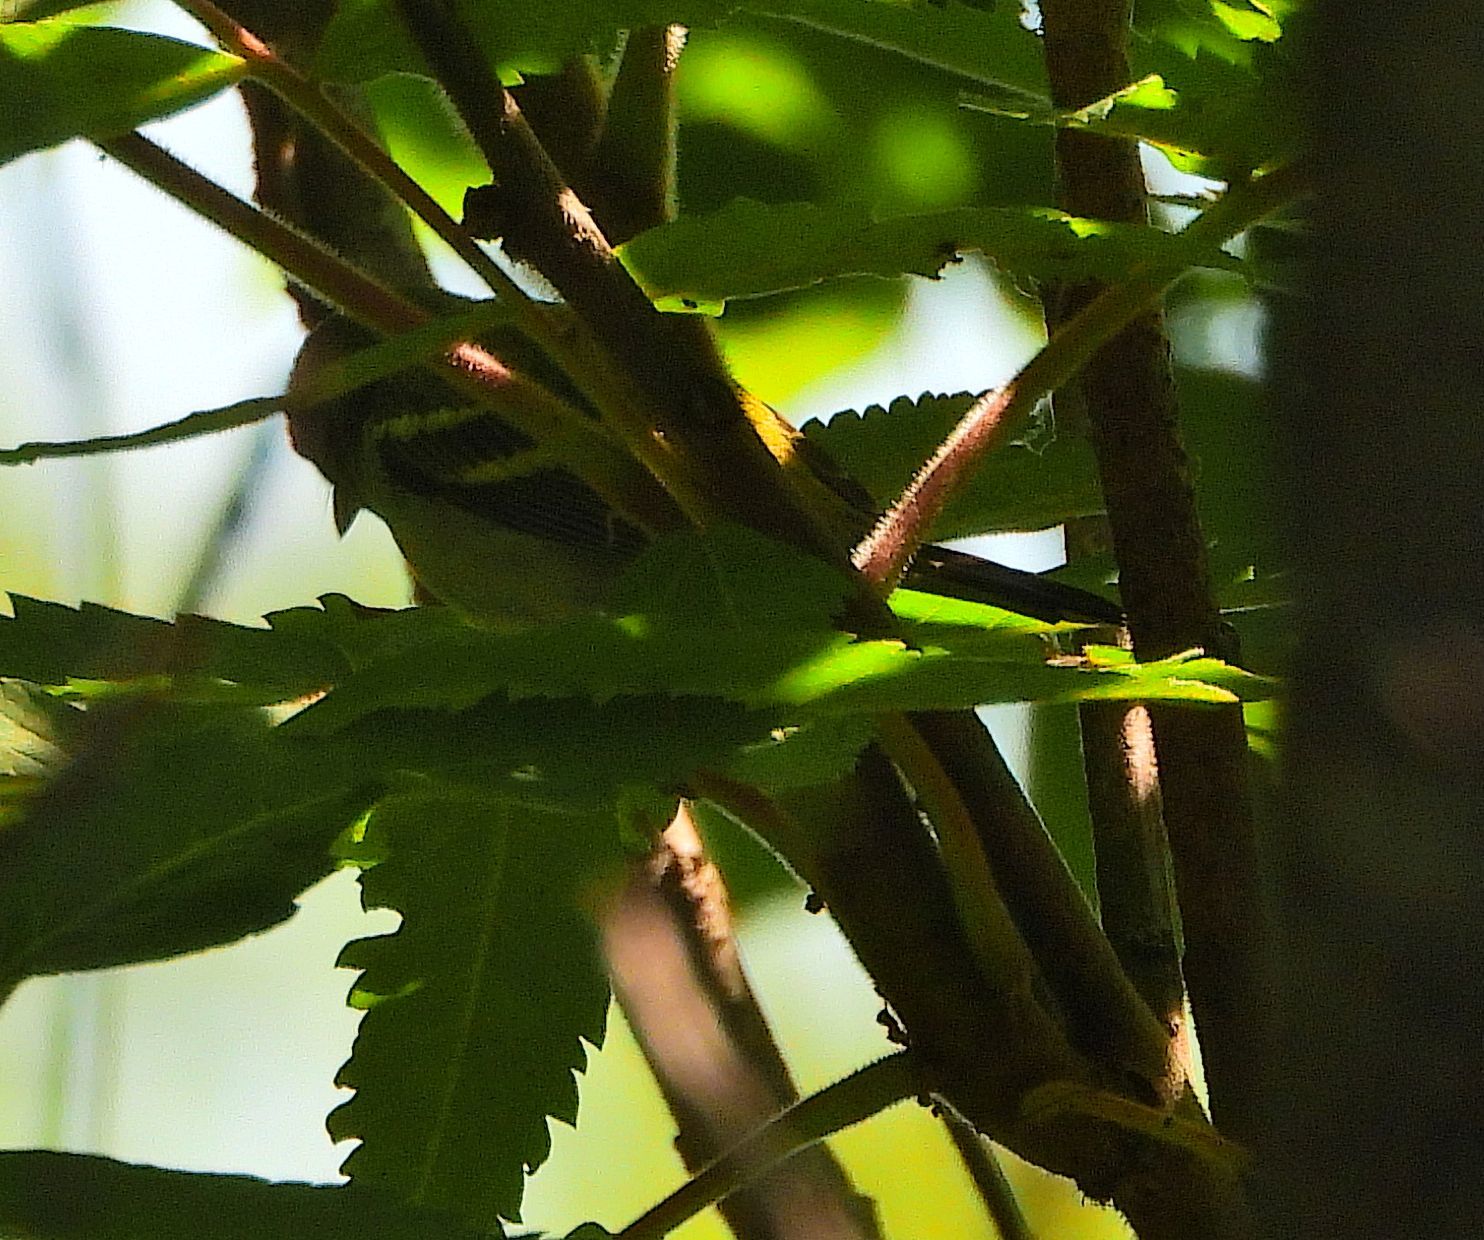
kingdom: Animalia
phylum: Chordata
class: Aves
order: Passeriformes
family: Parulidae
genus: Setophaga
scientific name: Setophaga pensylvanica
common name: Chestnut-sided warbler
